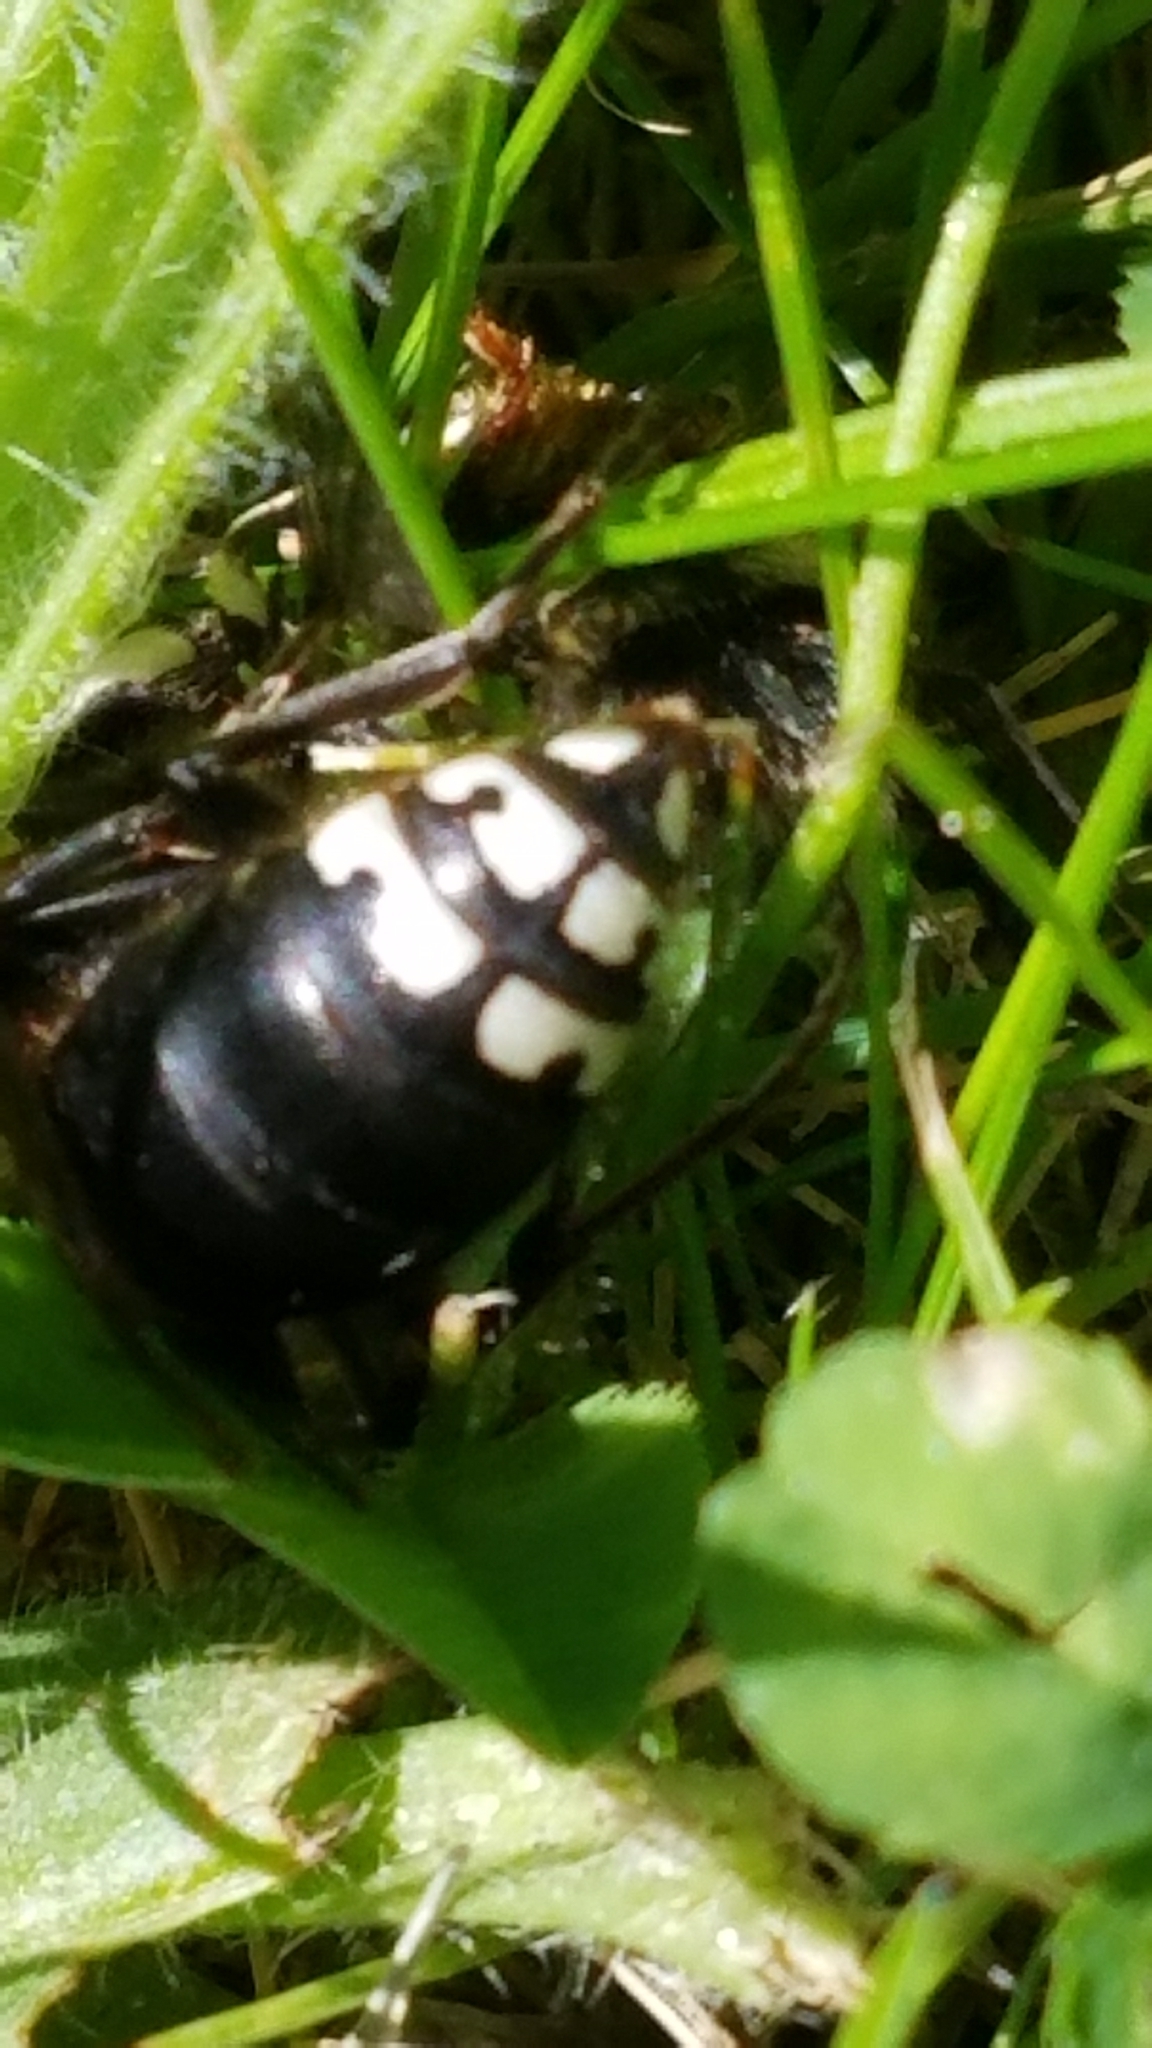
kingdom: Animalia
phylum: Arthropoda
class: Insecta
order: Hymenoptera
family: Vespidae
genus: Dolichovespula
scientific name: Dolichovespula maculata
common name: Bald-faced hornet
